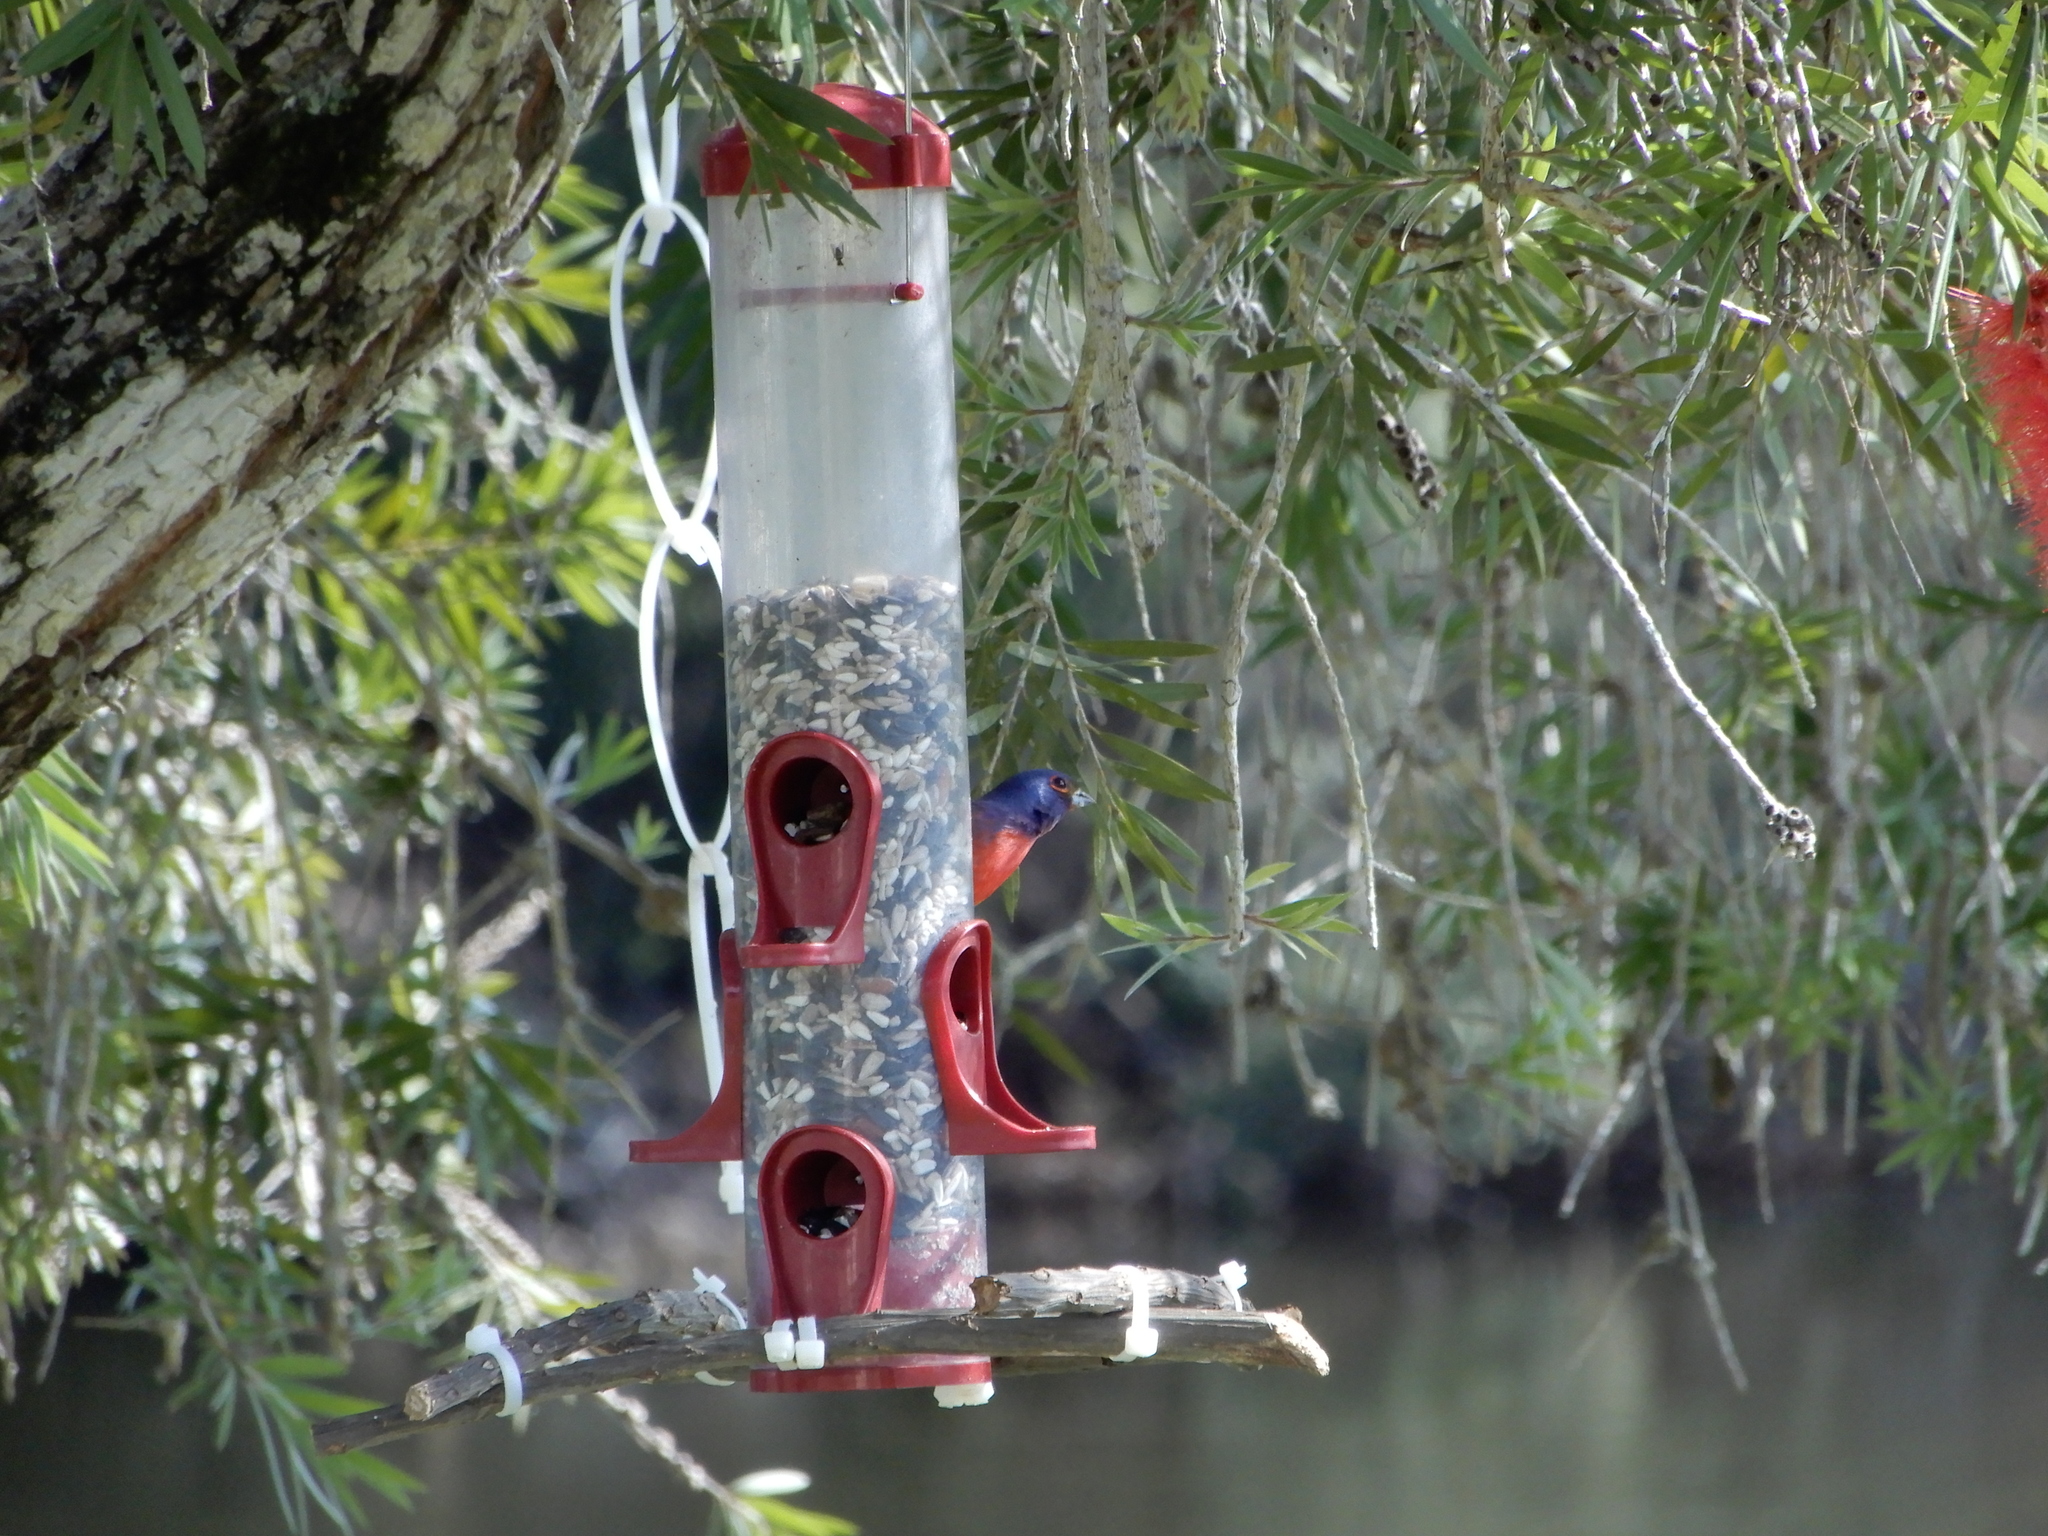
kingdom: Animalia
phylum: Chordata
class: Aves
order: Passeriformes
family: Cardinalidae
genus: Passerina
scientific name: Passerina ciris
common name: Painted bunting
